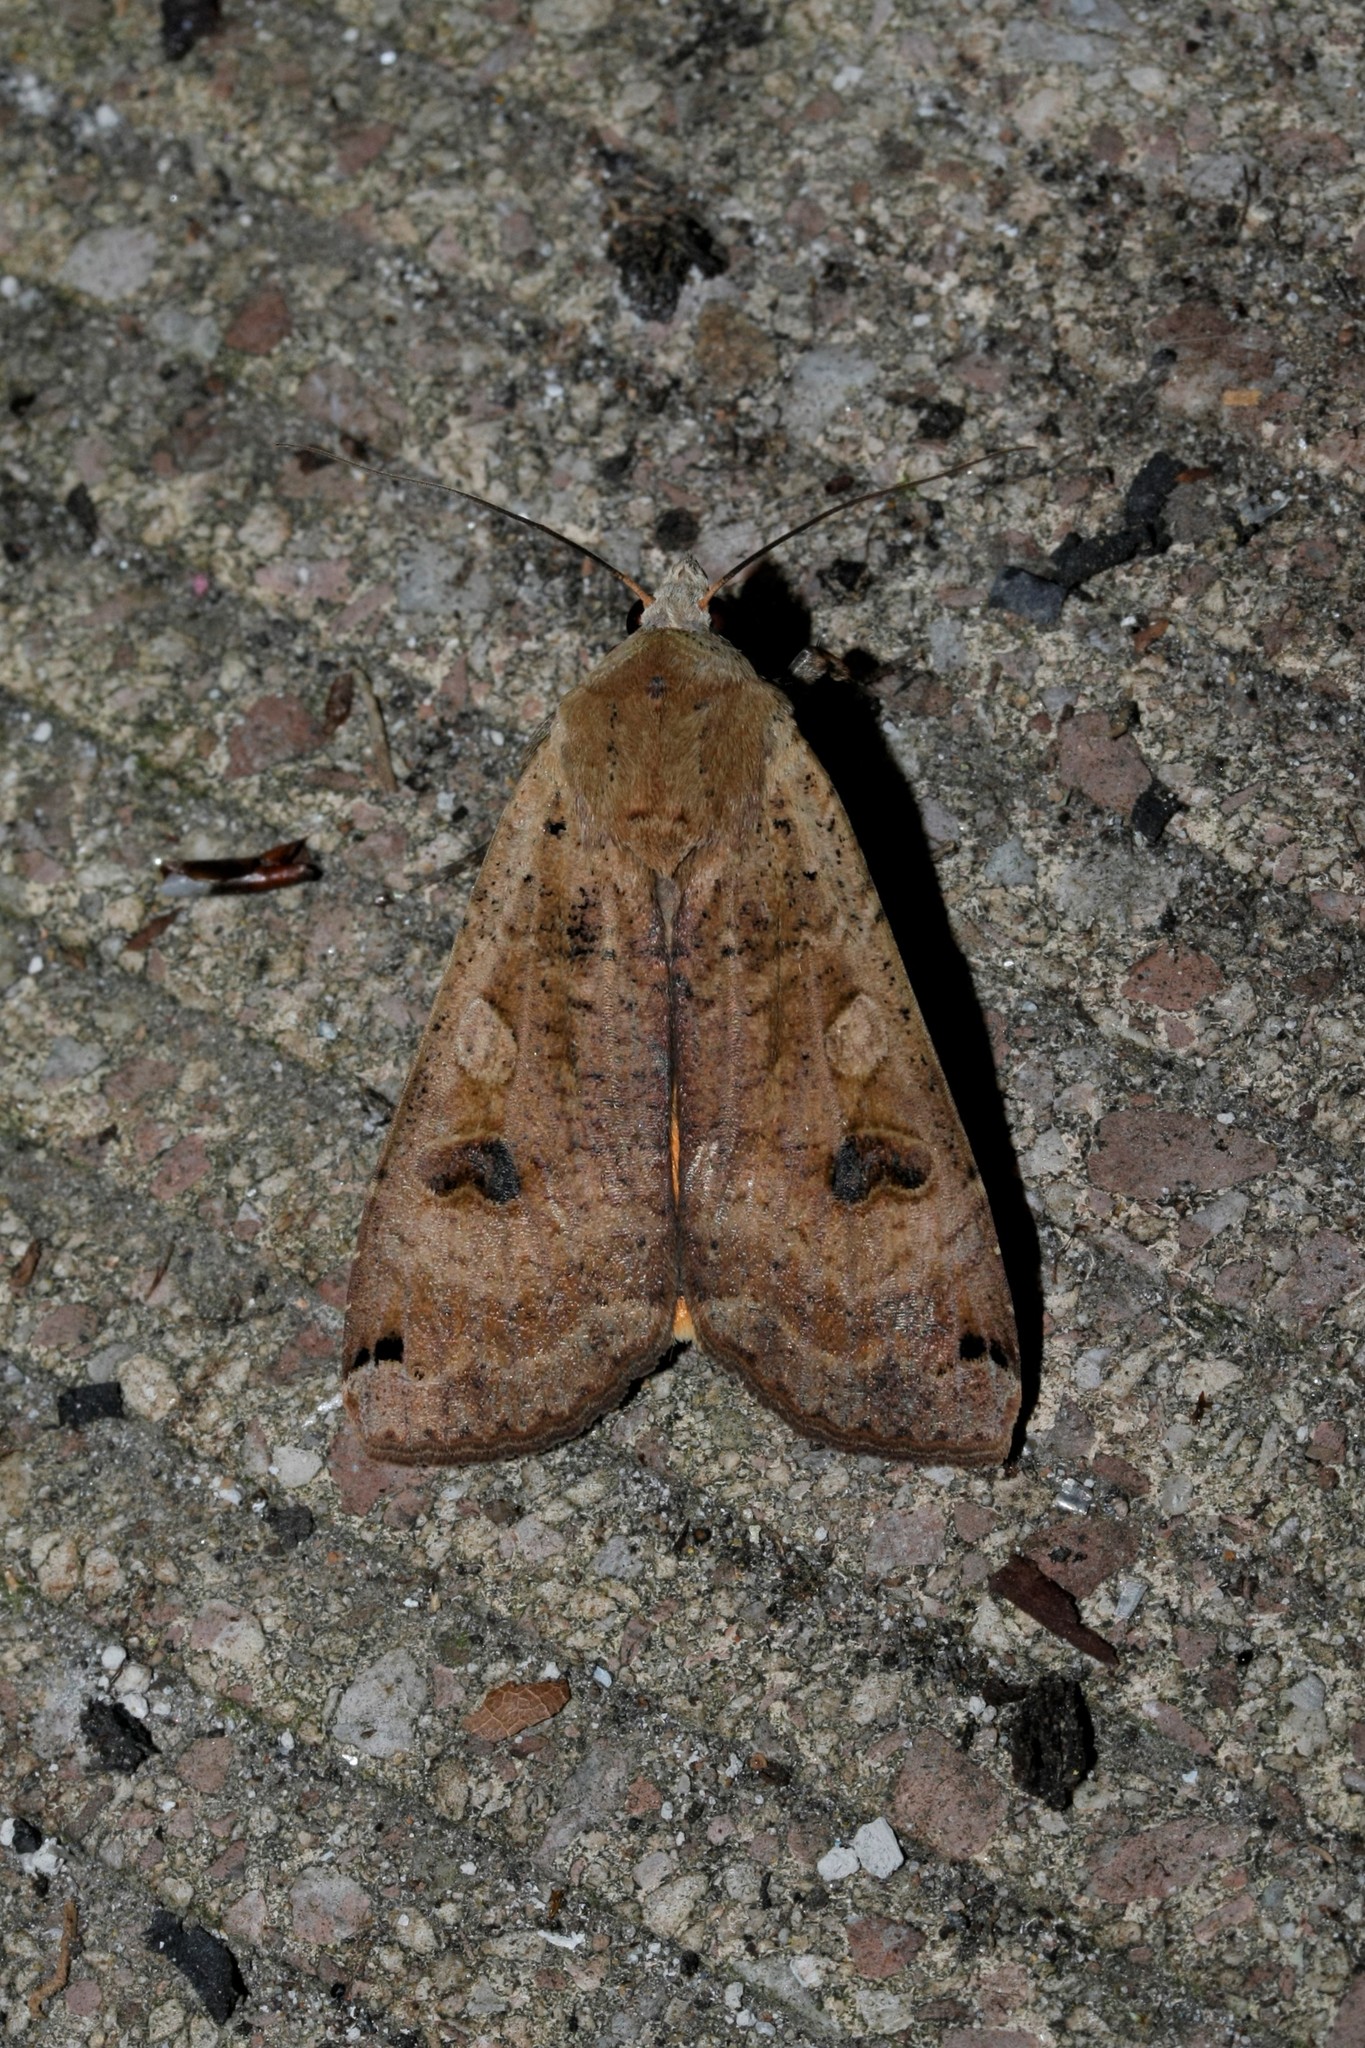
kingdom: Animalia
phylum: Arthropoda
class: Insecta
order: Lepidoptera
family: Noctuidae
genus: Noctua
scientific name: Noctua pronuba
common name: Large yellow underwing
